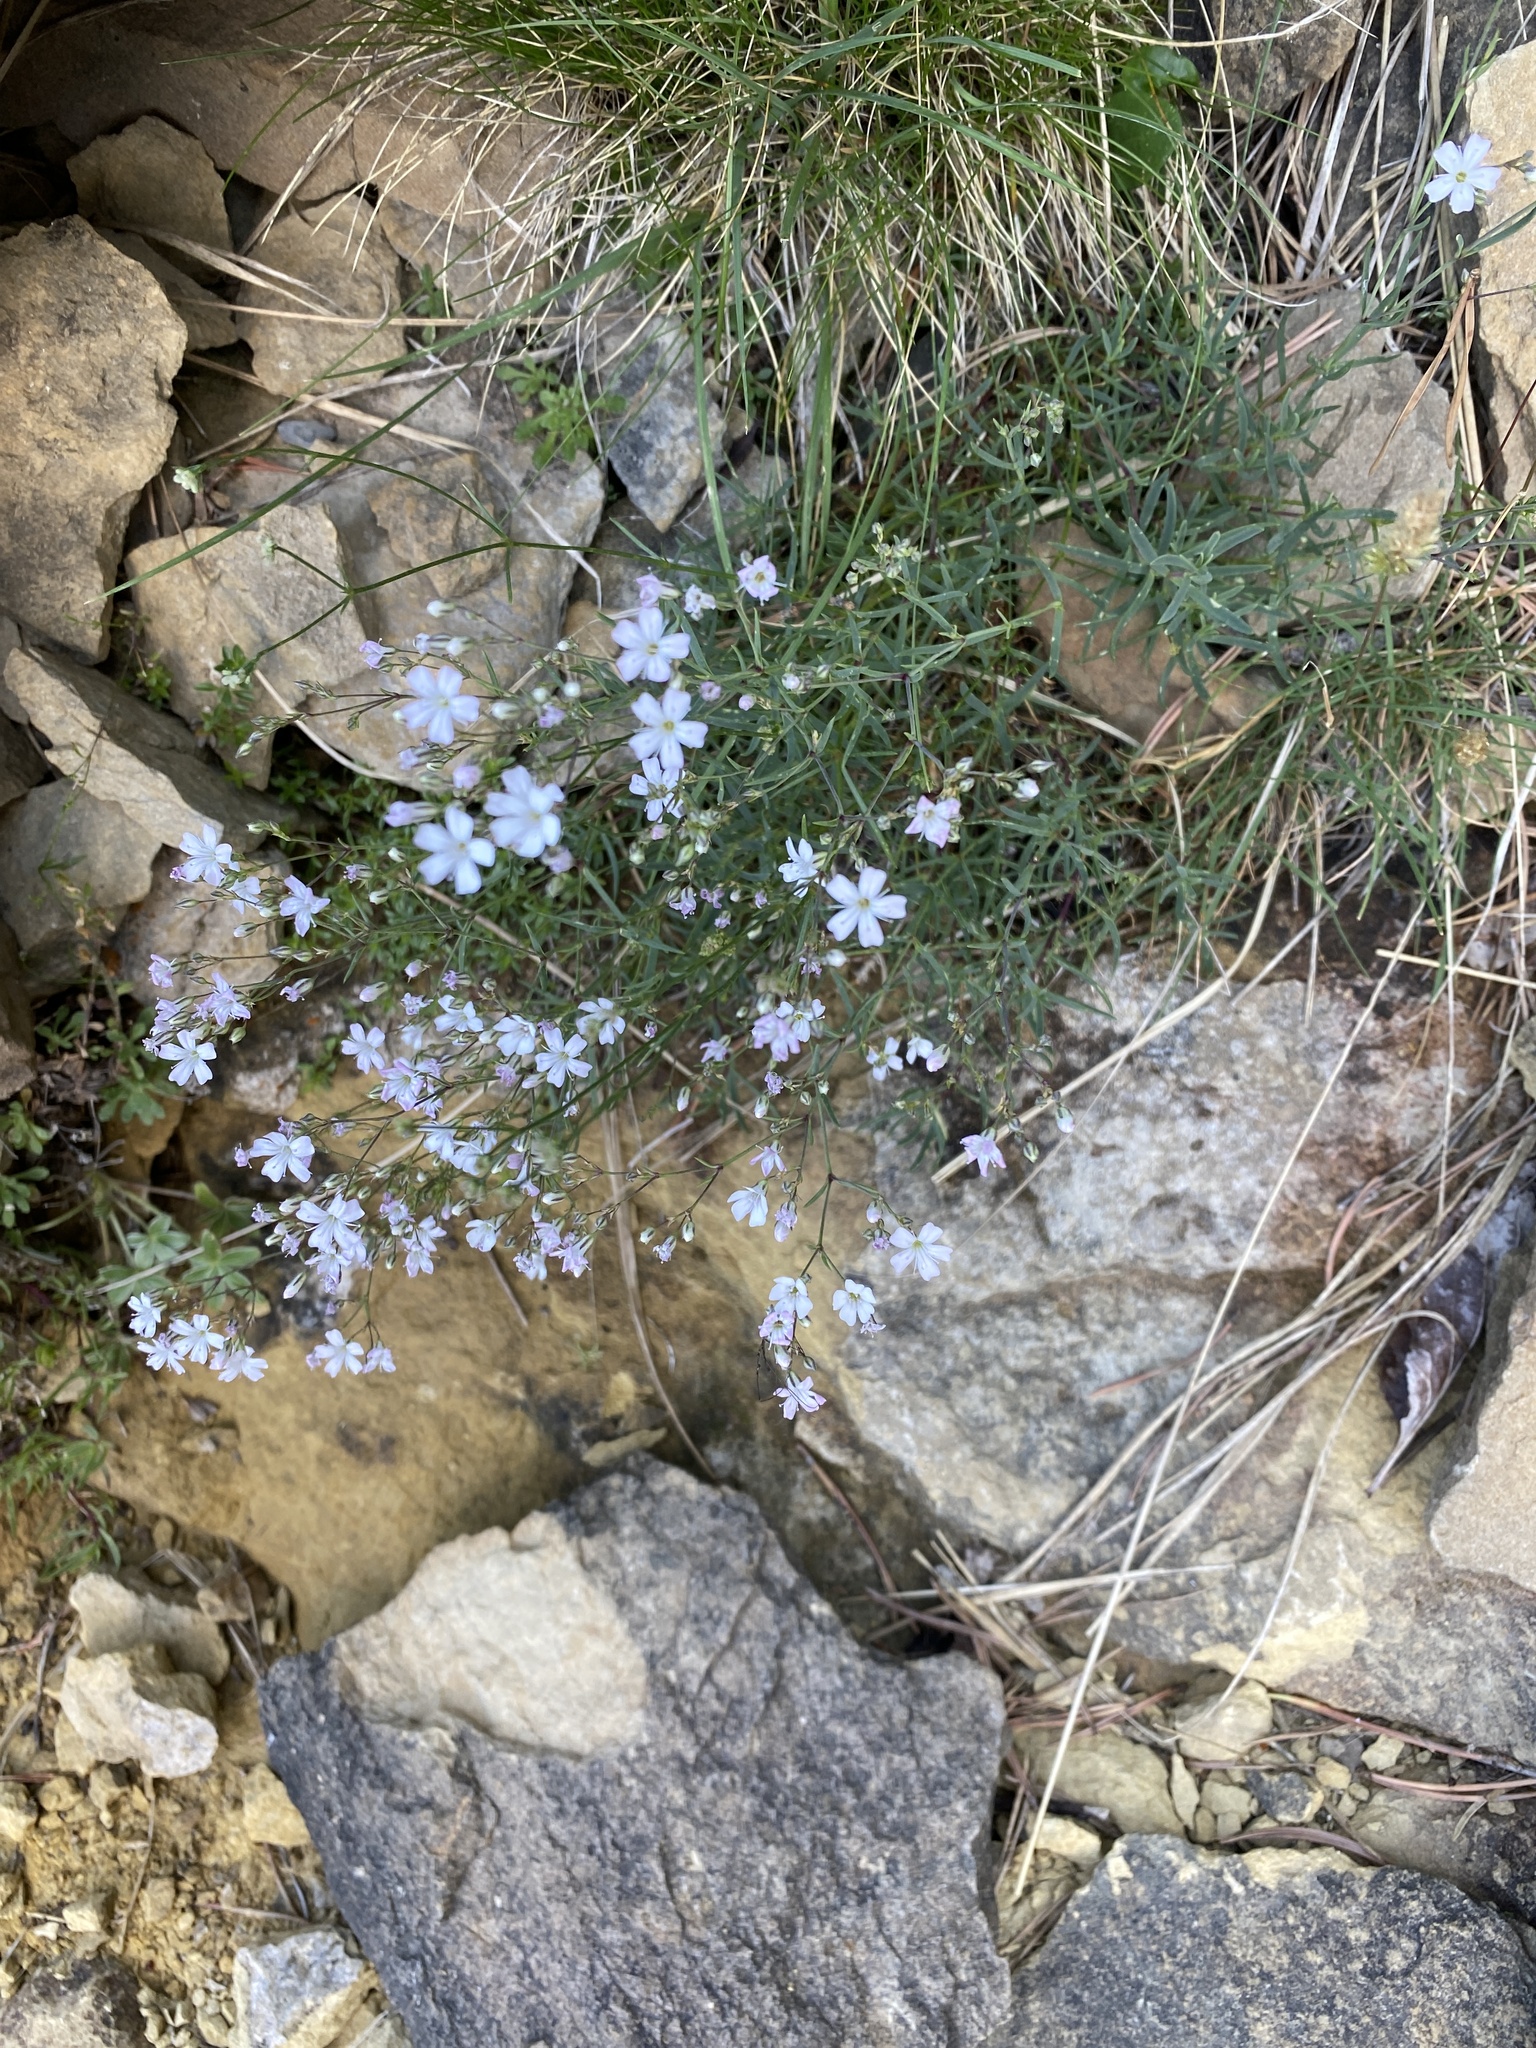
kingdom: Plantae
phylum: Tracheophyta
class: Magnoliopsida
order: Caryophyllales
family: Caryophyllaceae
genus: Gypsophila
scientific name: Gypsophila repens
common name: Creeping baby's-breath
